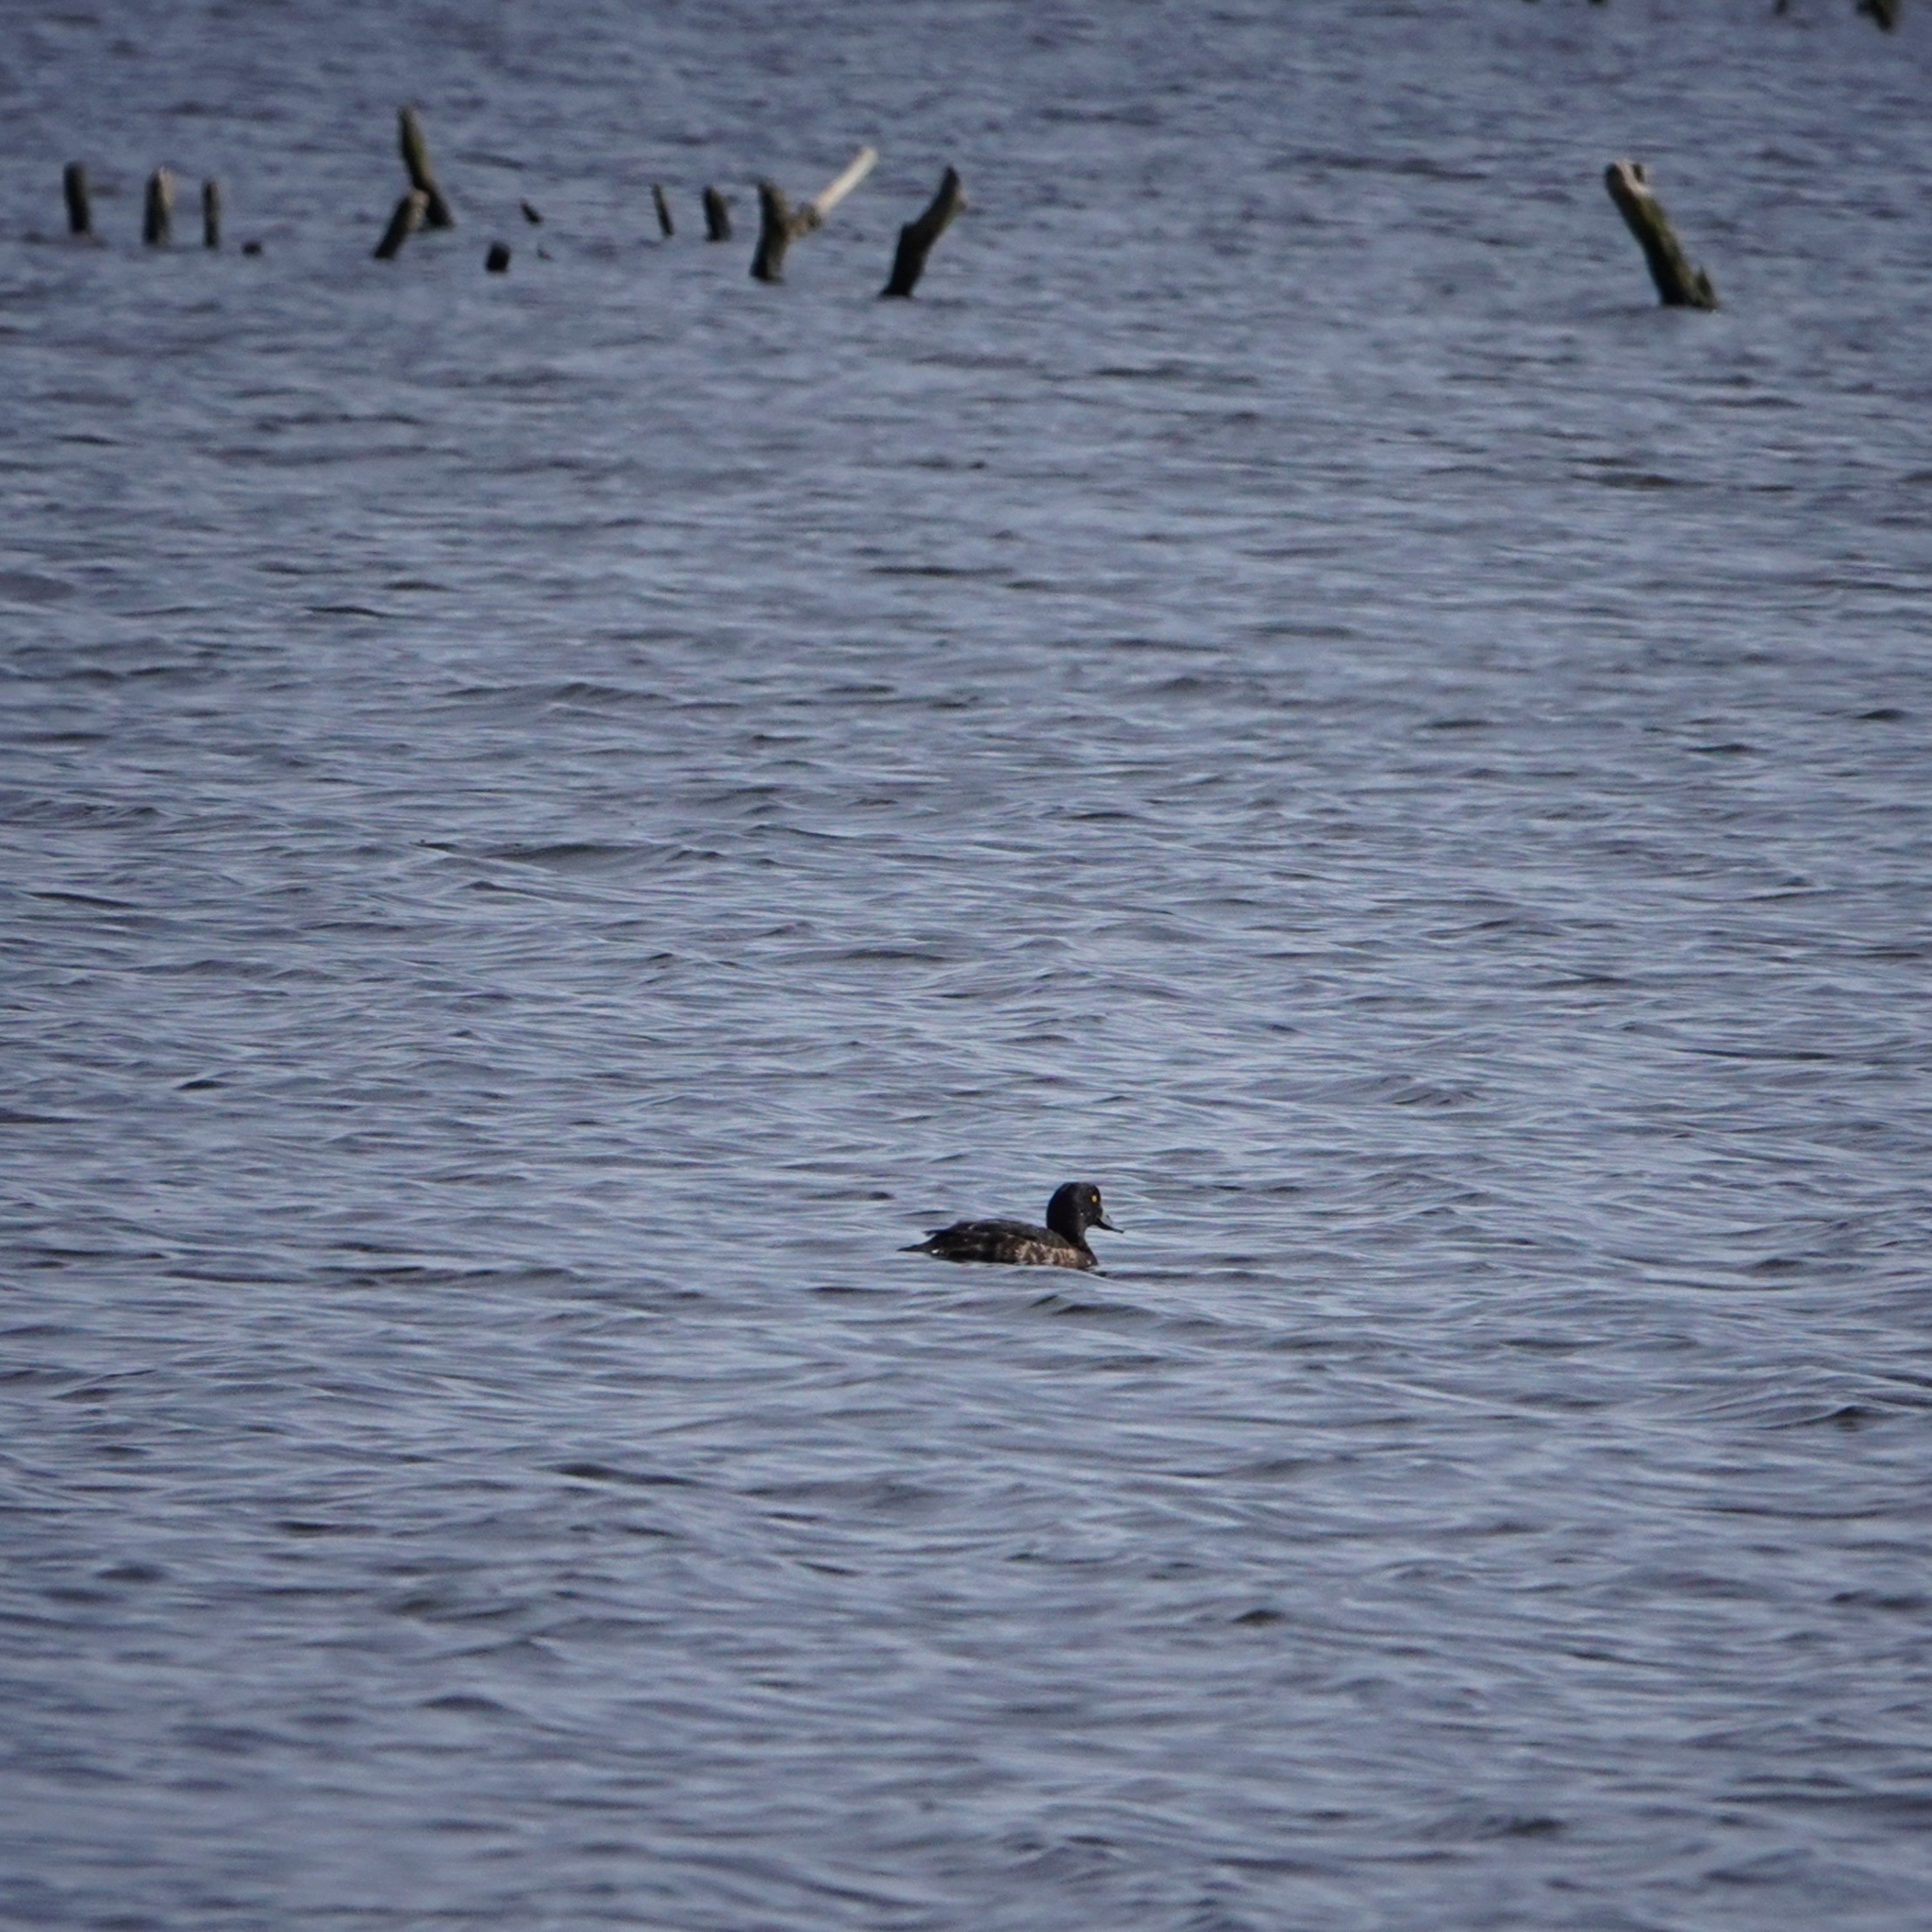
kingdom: Animalia
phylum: Chordata
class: Aves
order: Anseriformes
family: Anatidae
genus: Aythya
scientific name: Aythya fuligula
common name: Tufted duck
